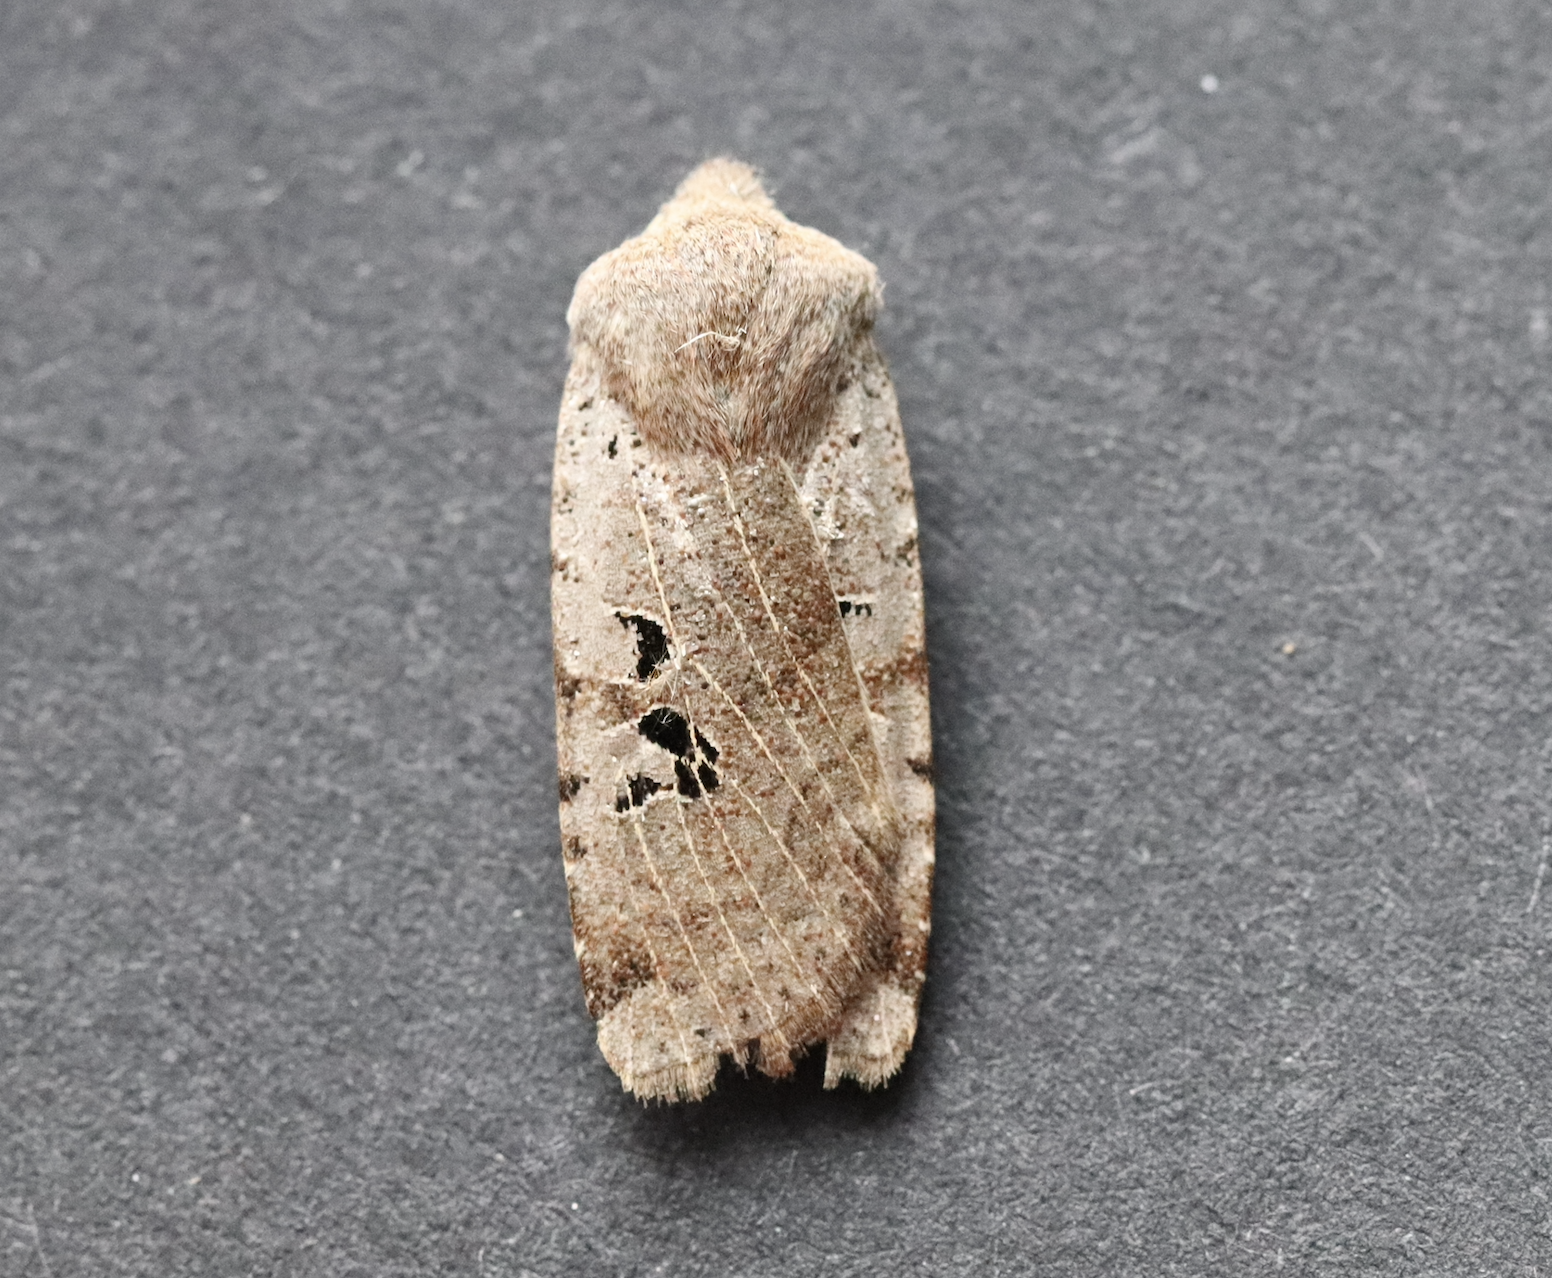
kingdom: Animalia
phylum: Arthropoda
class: Insecta
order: Lepidoptera
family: Noctuidae
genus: Conistra
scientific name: Conistra rubiginosa
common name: Black-spotted chestnut
